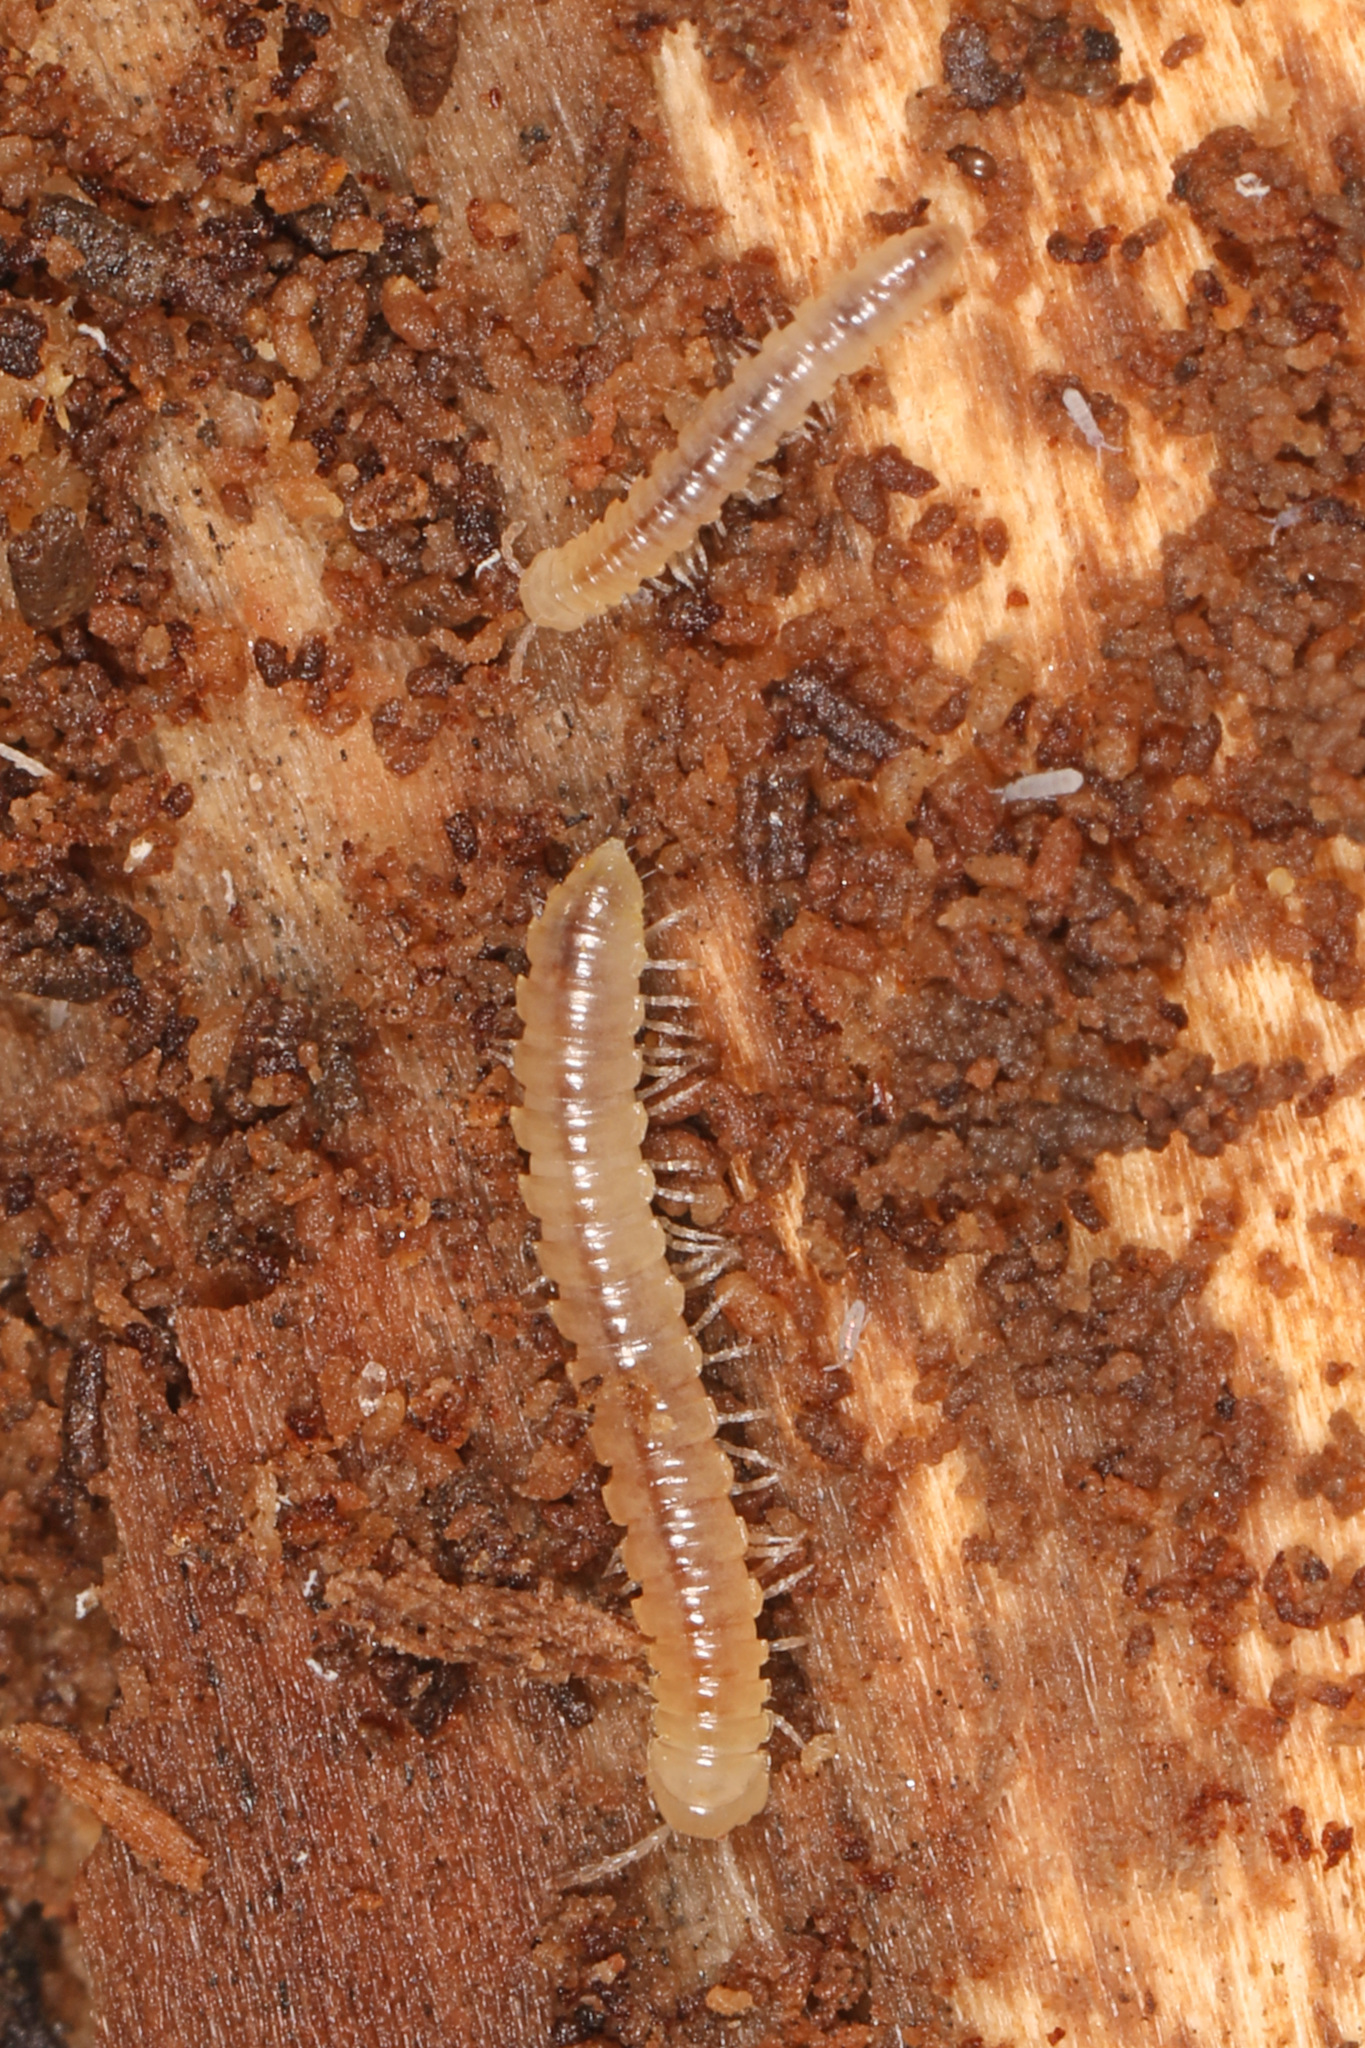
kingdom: Animalia
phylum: Arthropoda
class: Diplopoda
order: Polydesmida
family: Paradoxosomatidae
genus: Oxidus
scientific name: Oxidus gracilis
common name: Greenhouse millipede
